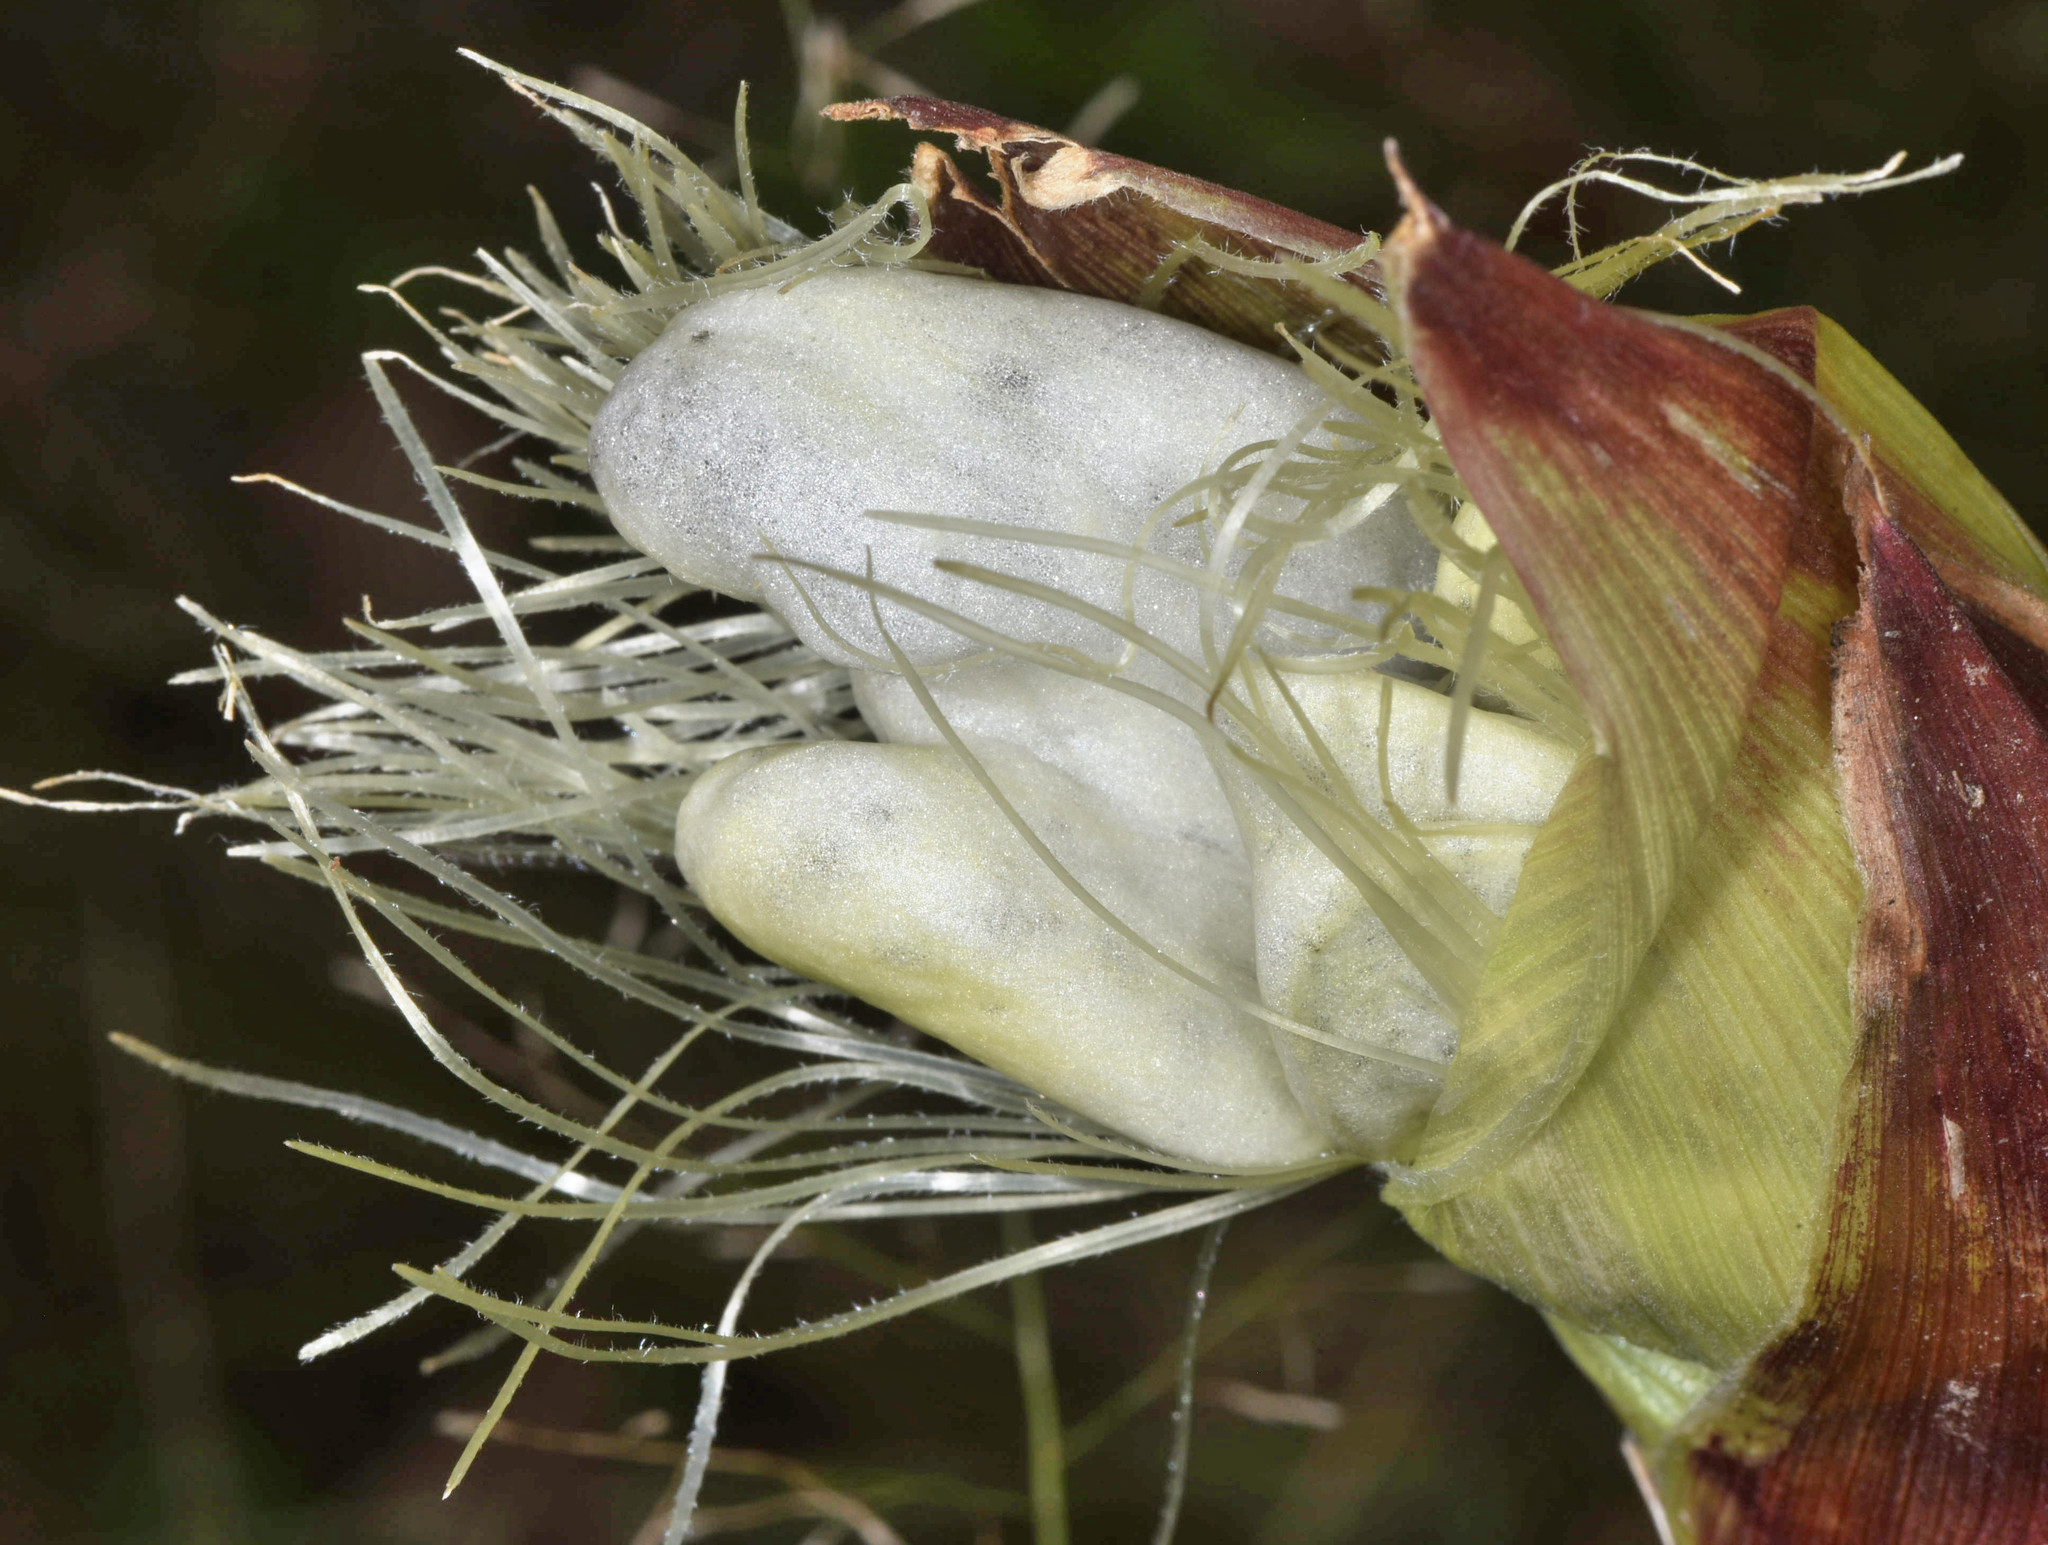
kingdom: Fungi
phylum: Basidiomycota
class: Ustilaginomycetes
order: Ustilaginales
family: Ustilaginaceae
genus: Mycosarcoma
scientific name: Mycosarcoma maydis
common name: Corn smut
